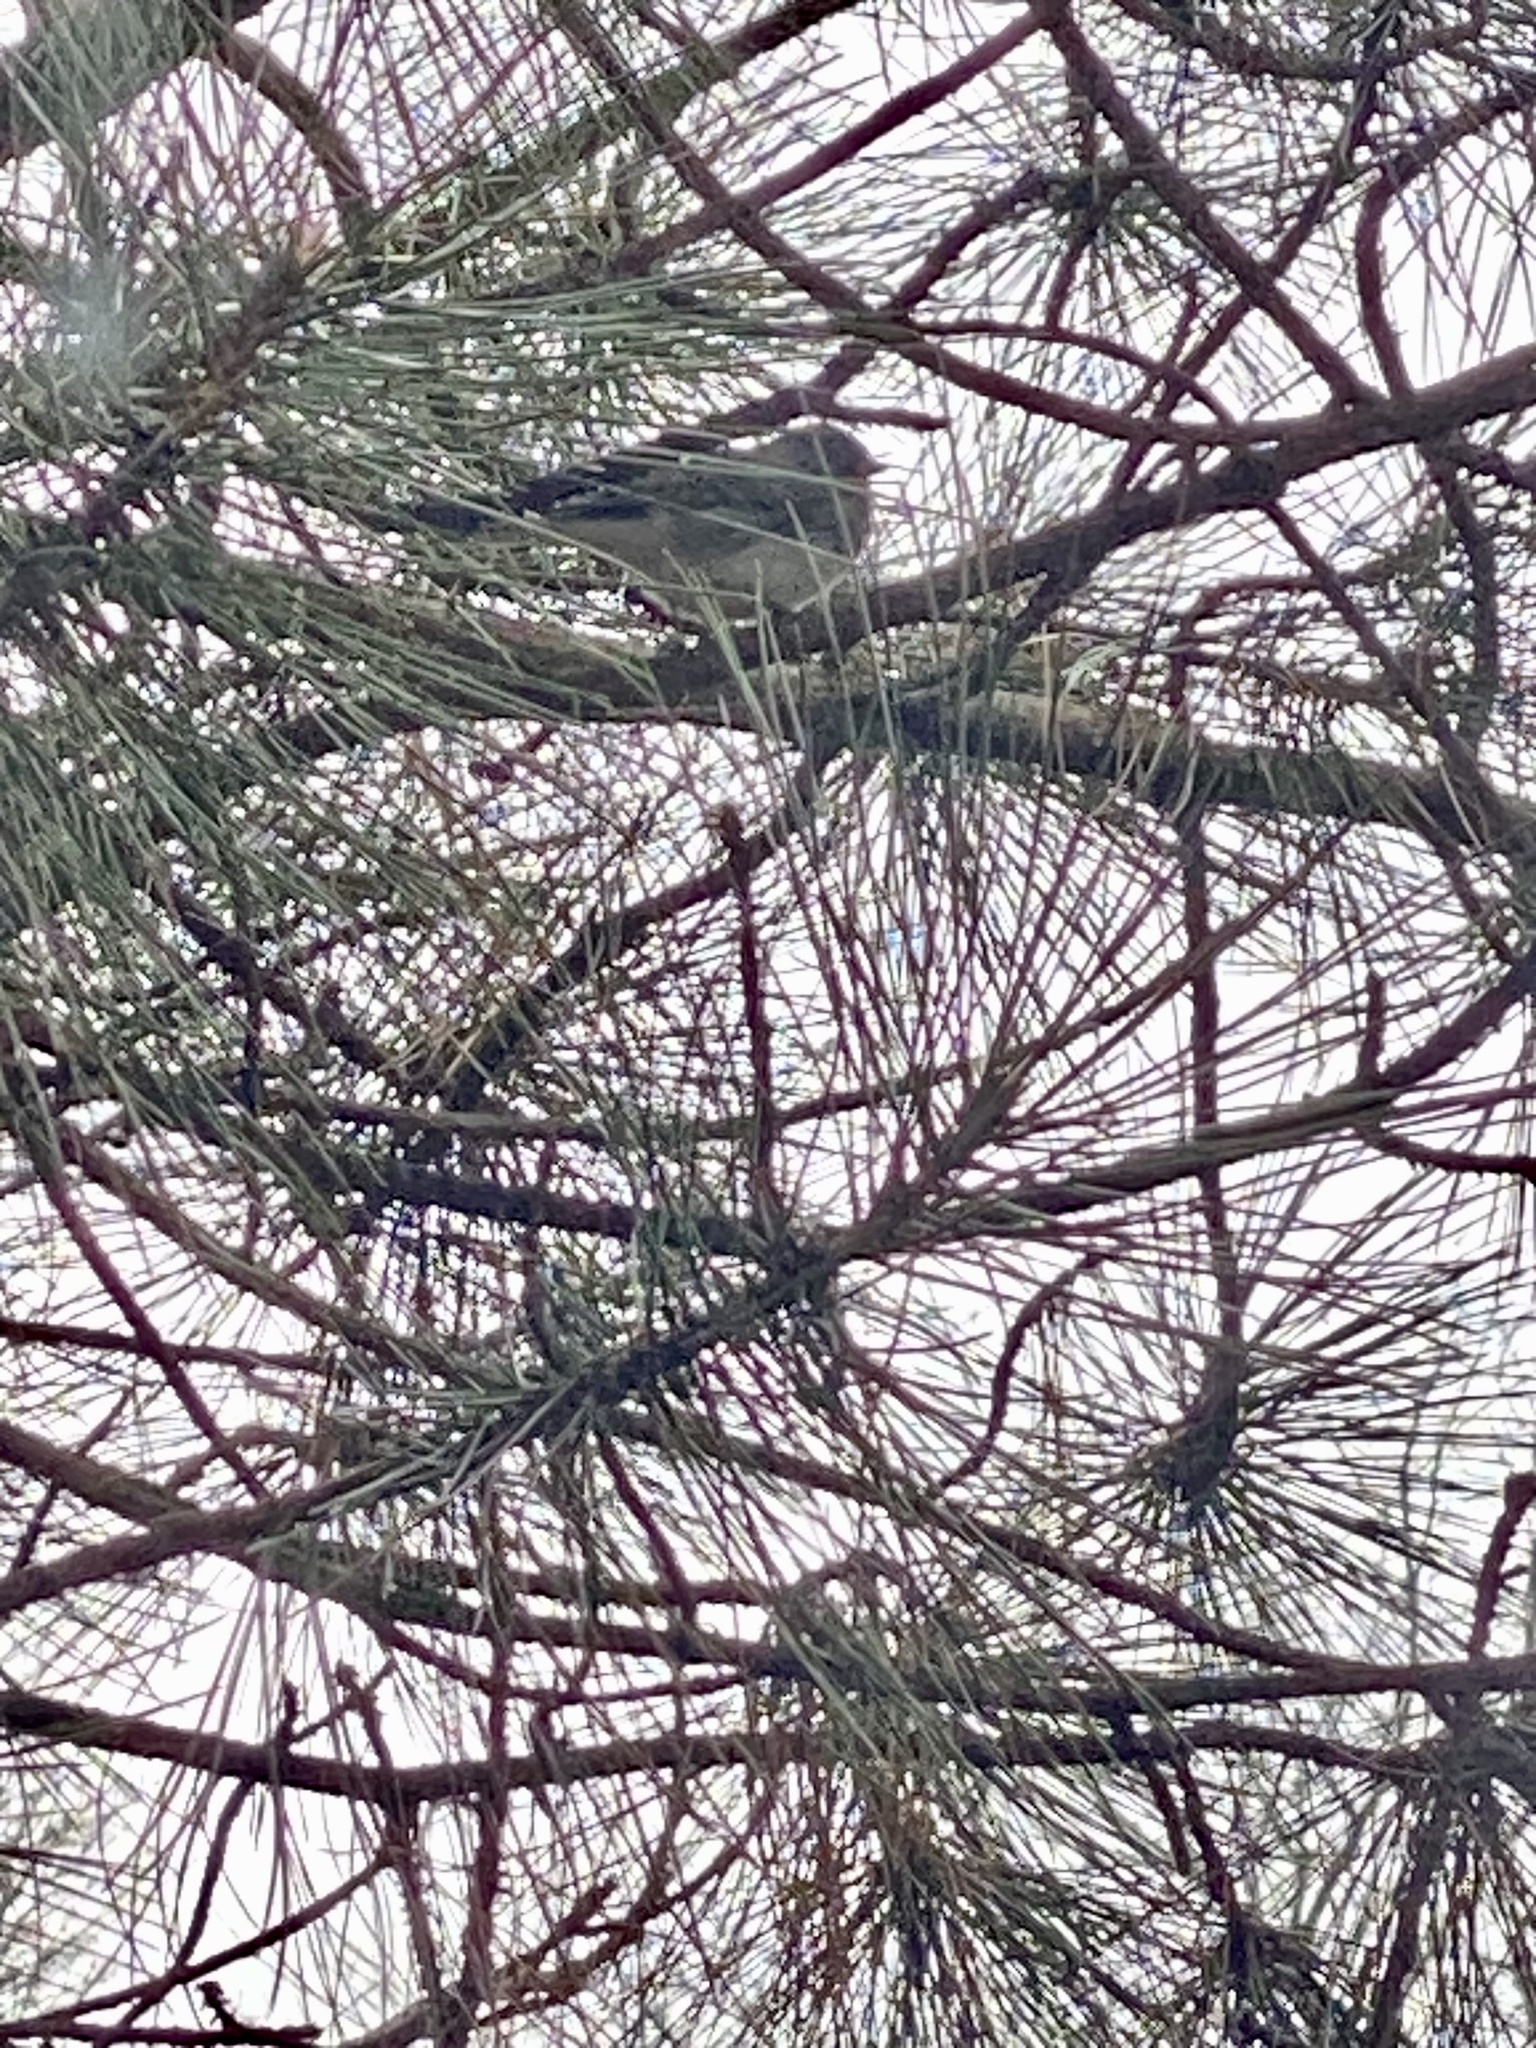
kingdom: Animalia
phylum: Chordata
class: Aves
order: Passeriformes
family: Passerellidae
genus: Junco
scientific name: Junco hyemalis
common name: Dark-eyed junco
